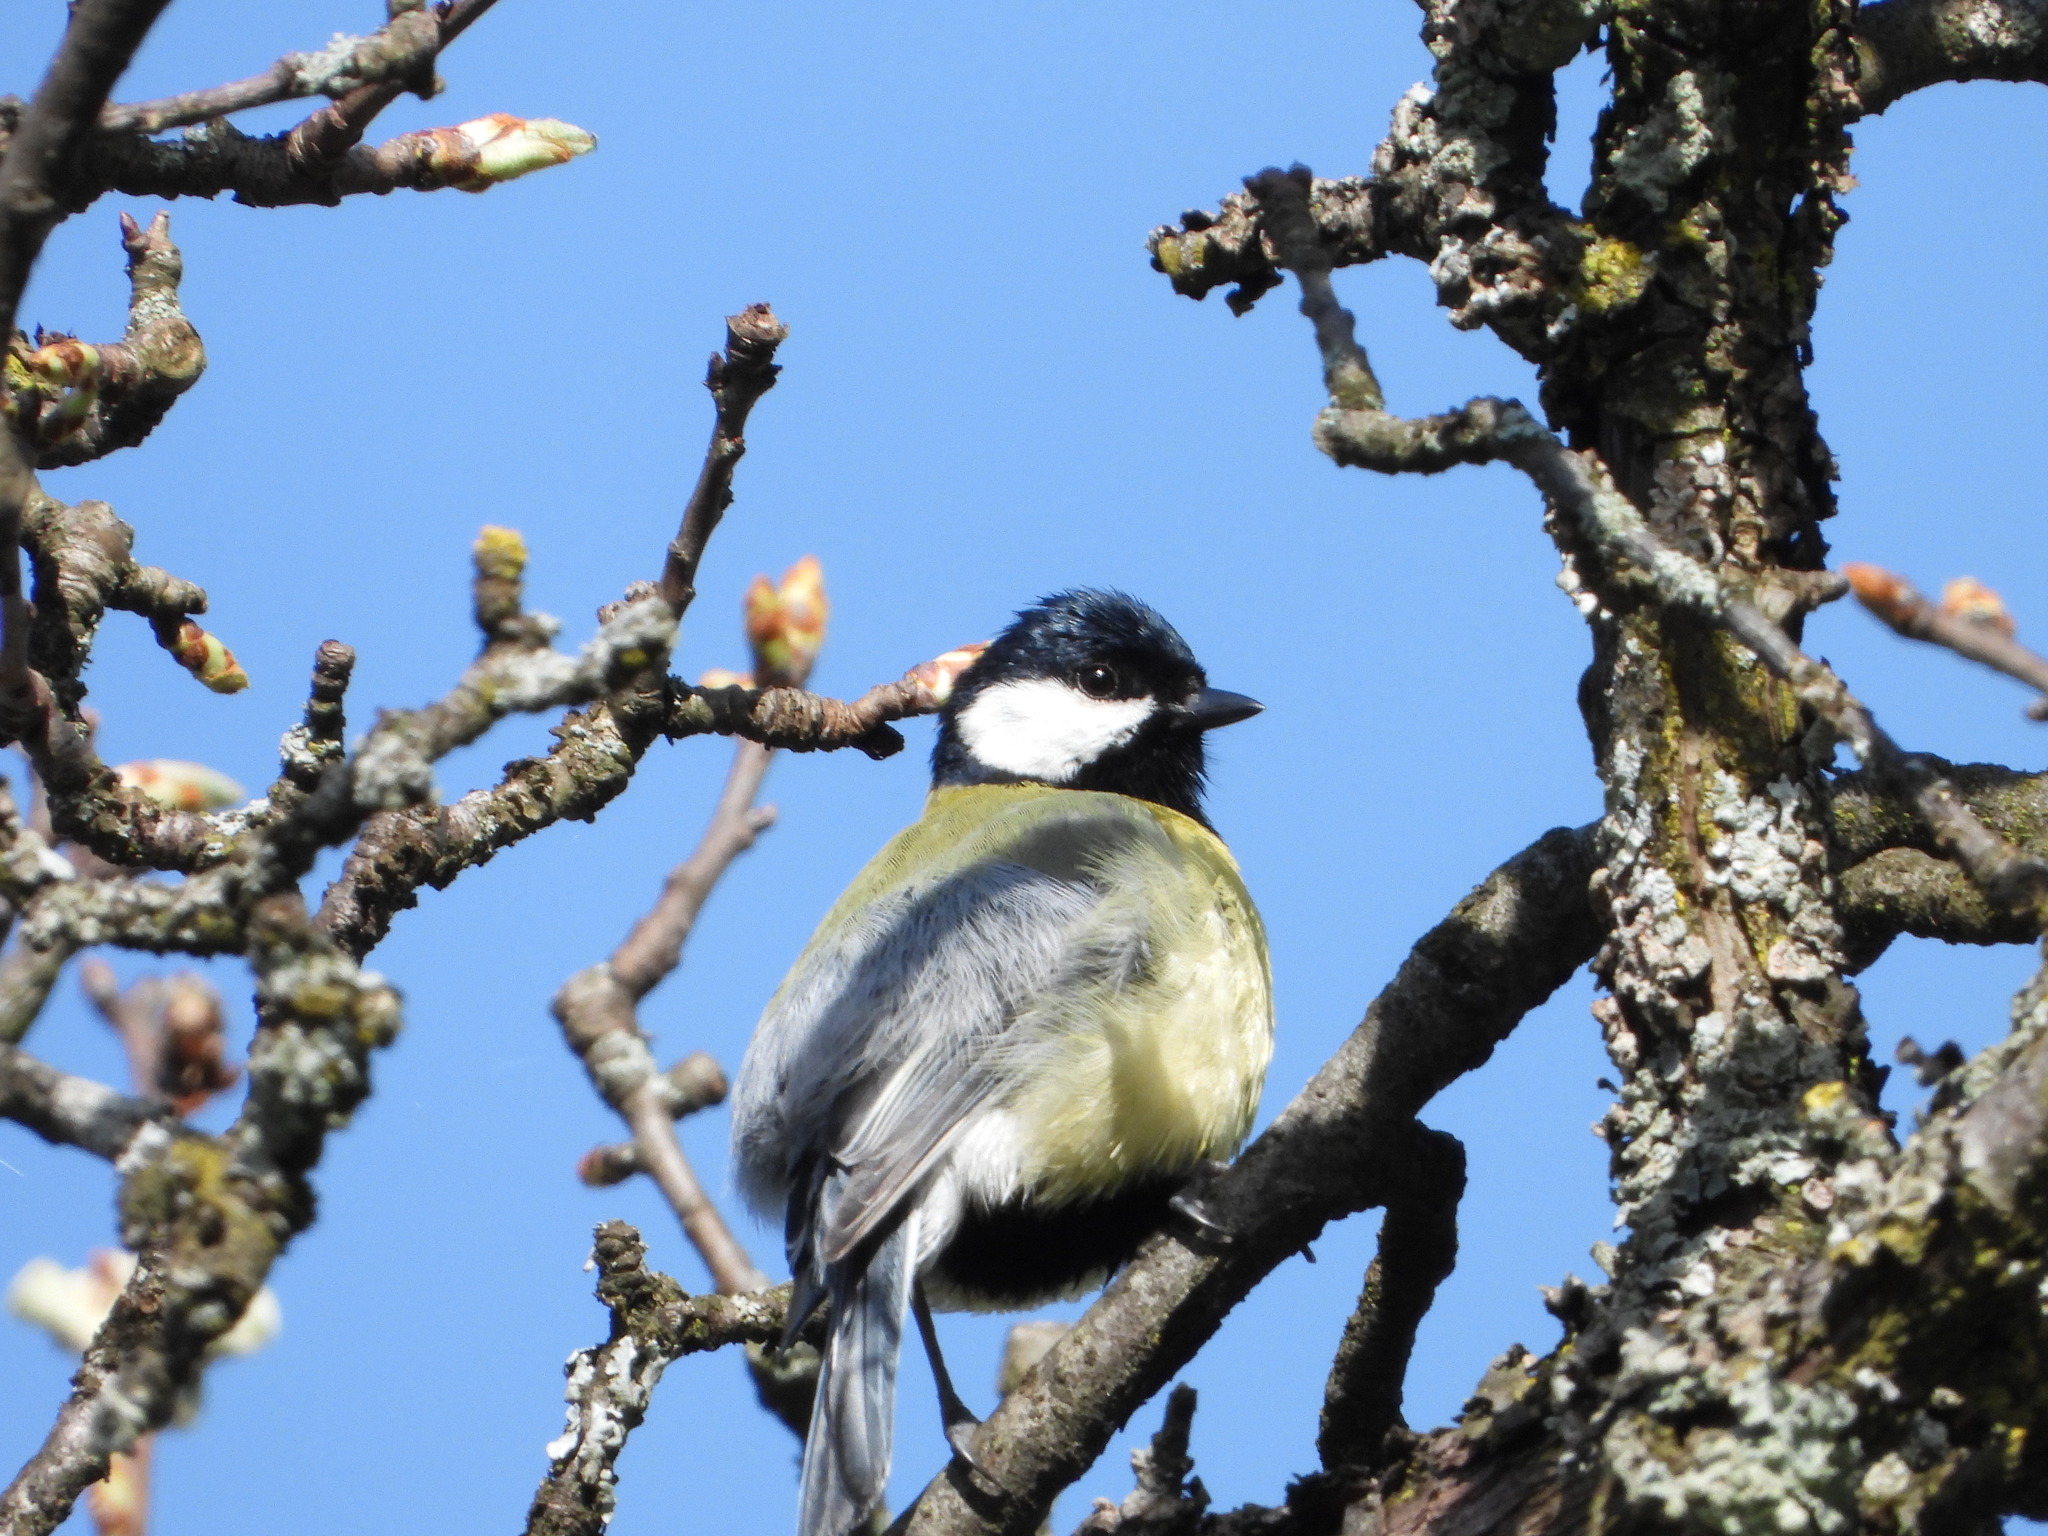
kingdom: Animalia
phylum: Chordata
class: Aves
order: Passeriformes
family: Paridae
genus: Parus
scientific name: Parus major
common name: Great tit
